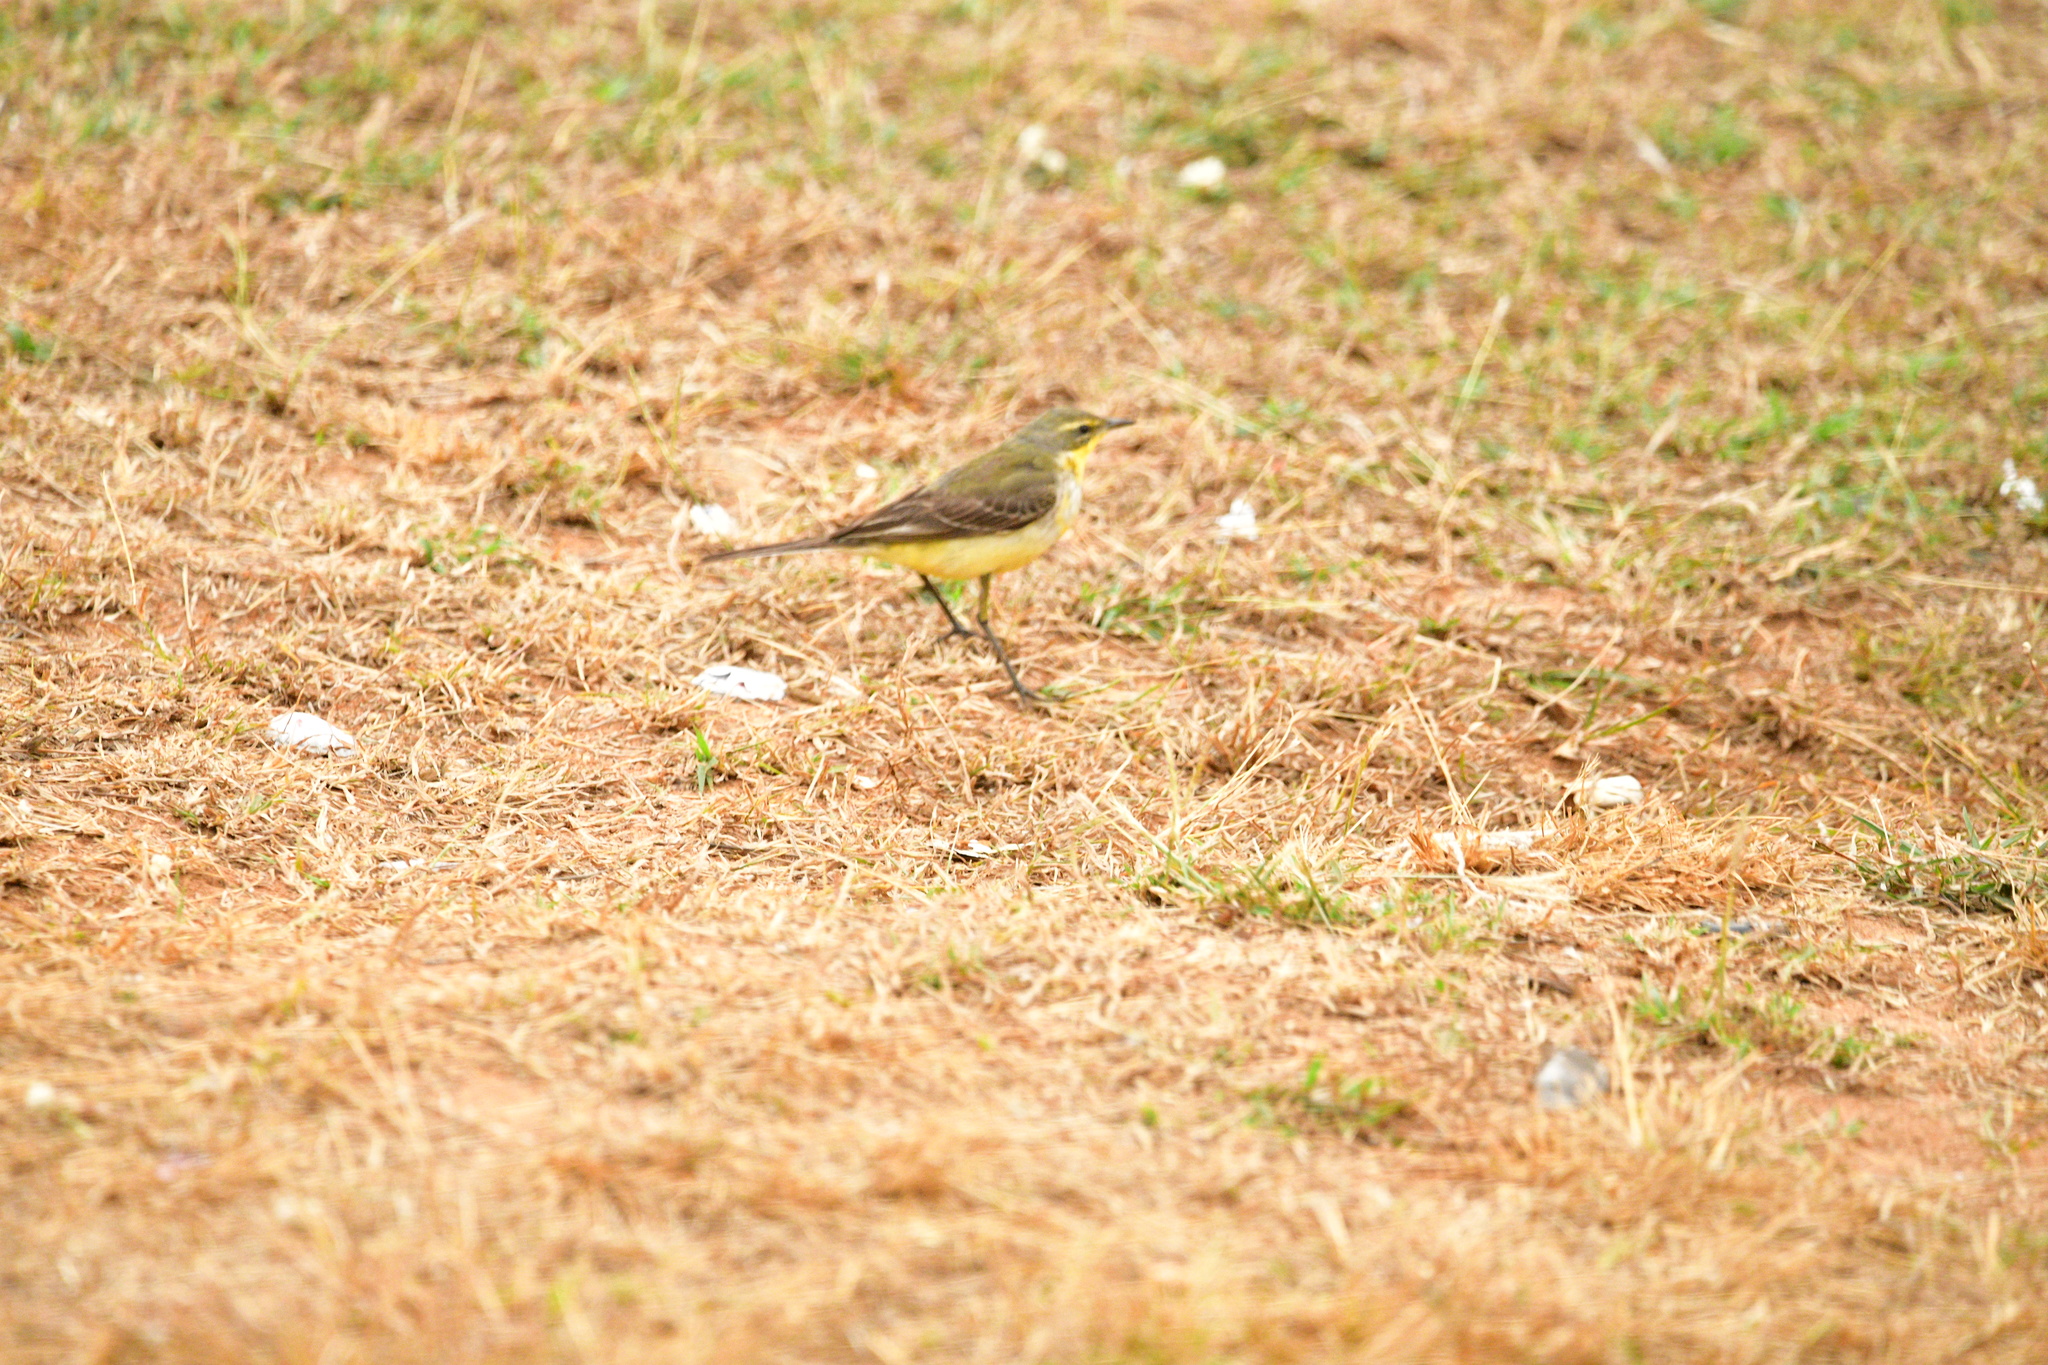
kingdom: Animalia
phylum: Chordata
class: Aves
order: Passeriformes
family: Motacillidae
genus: Motacilla
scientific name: Motacilla flava
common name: Western yellow wagtail
